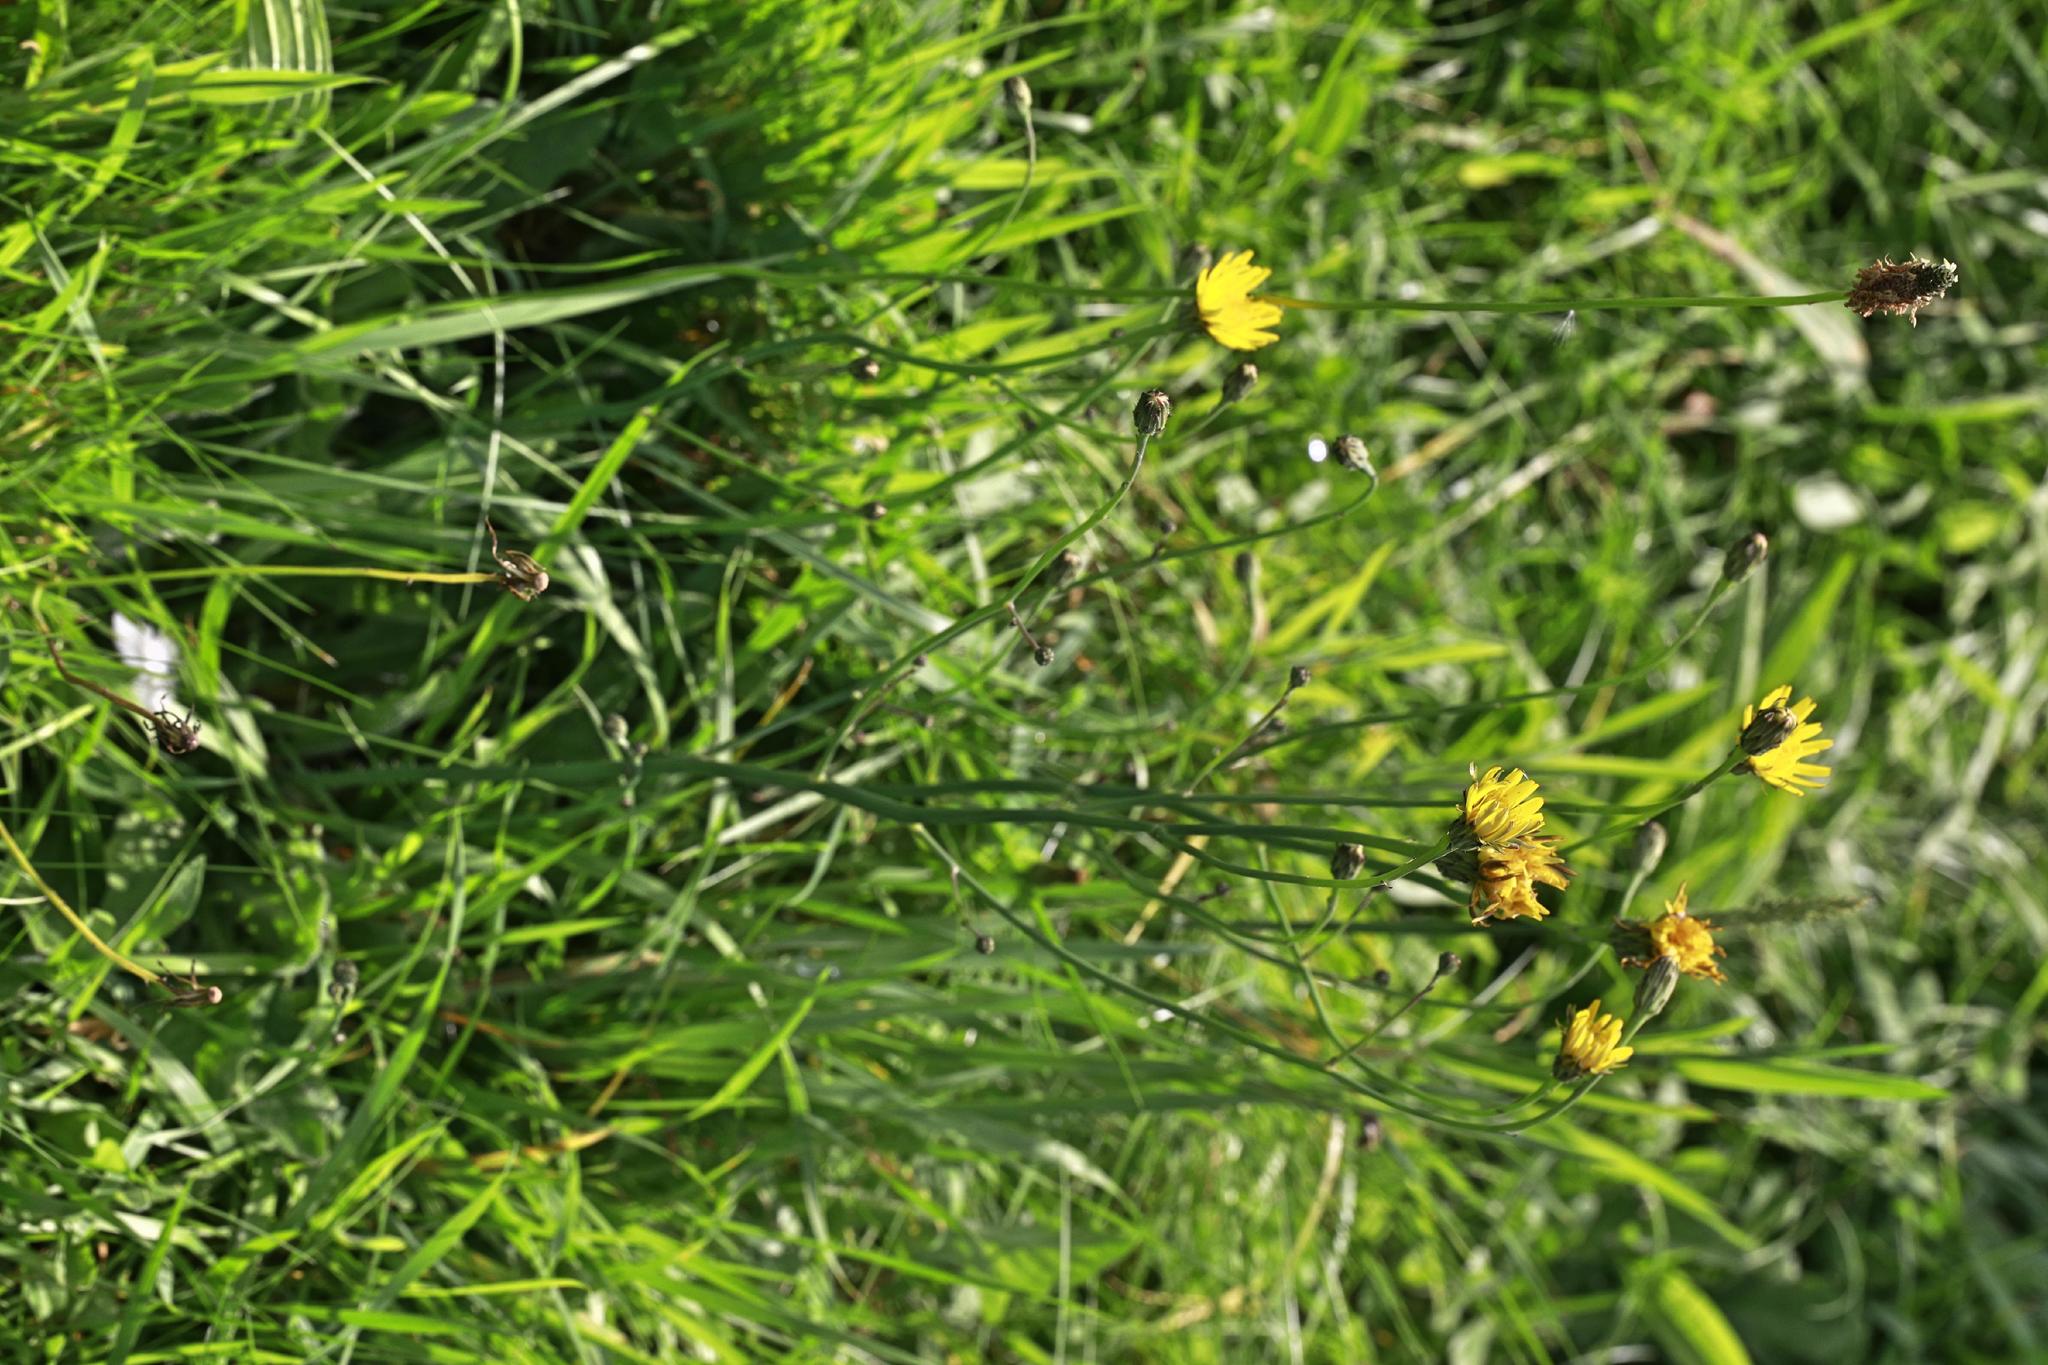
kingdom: Plantae
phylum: Tracheophyta
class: Magnoliopsida
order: Asterales
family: Asteraceae
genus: Hypochaeris
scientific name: Hypochaeris radicata
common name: Flatweed
